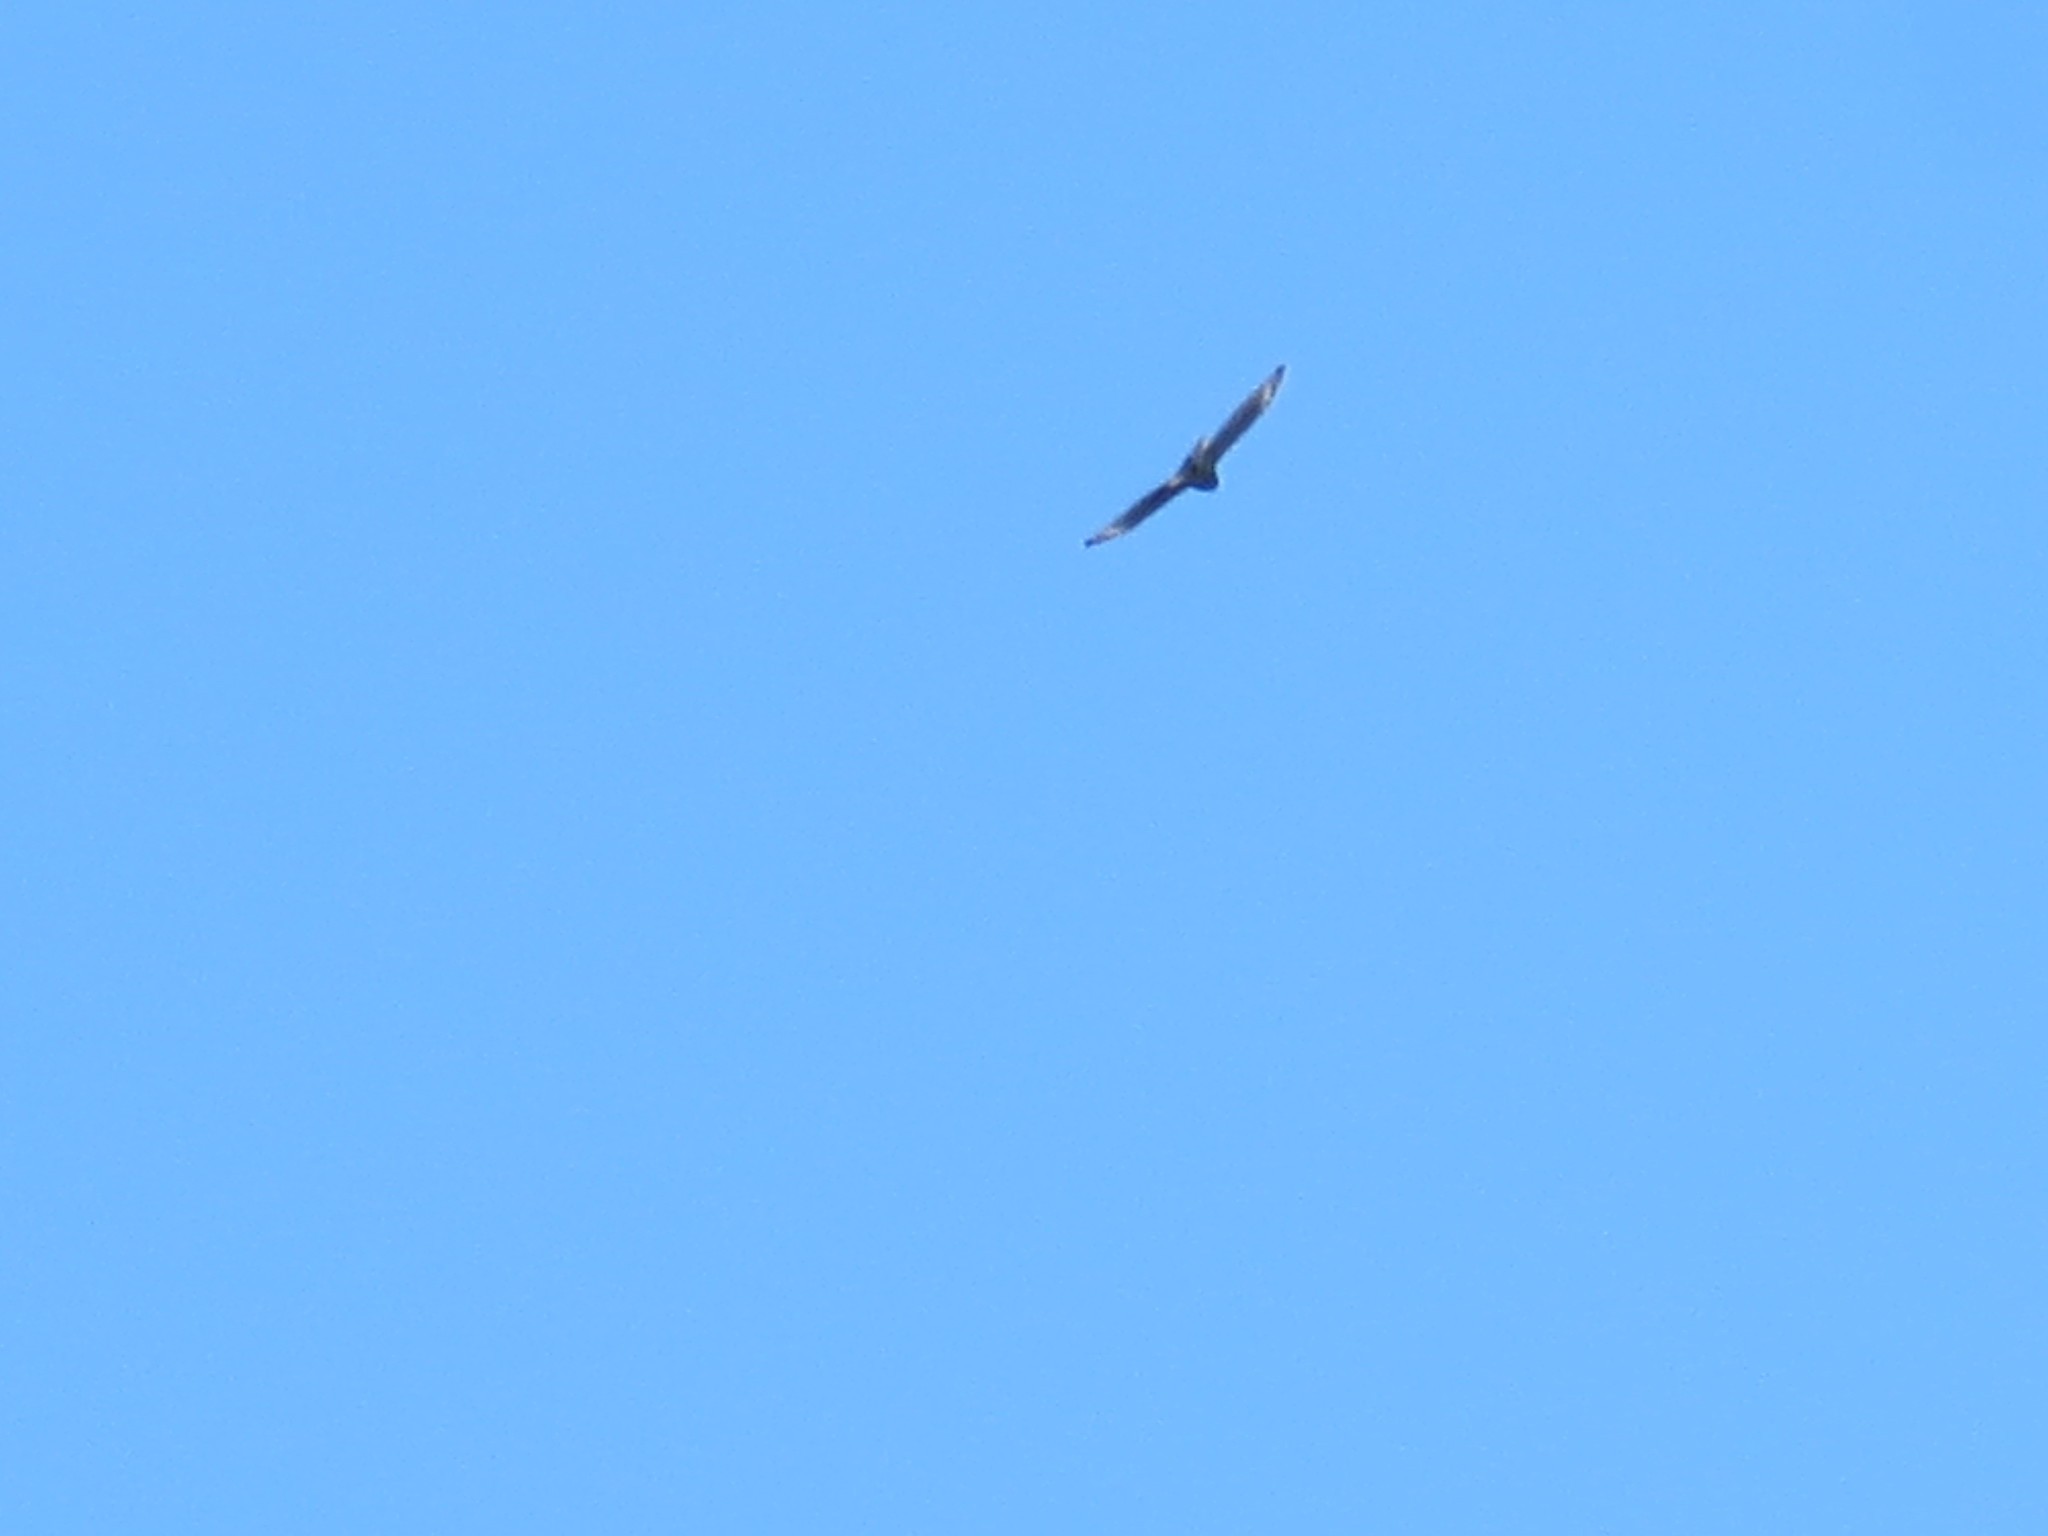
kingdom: Animalia
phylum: Chordata
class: Aves
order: Accipitriformes
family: Accipitridae
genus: Buteo
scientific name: Buteo lineatus
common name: Red-shouldered hawk
